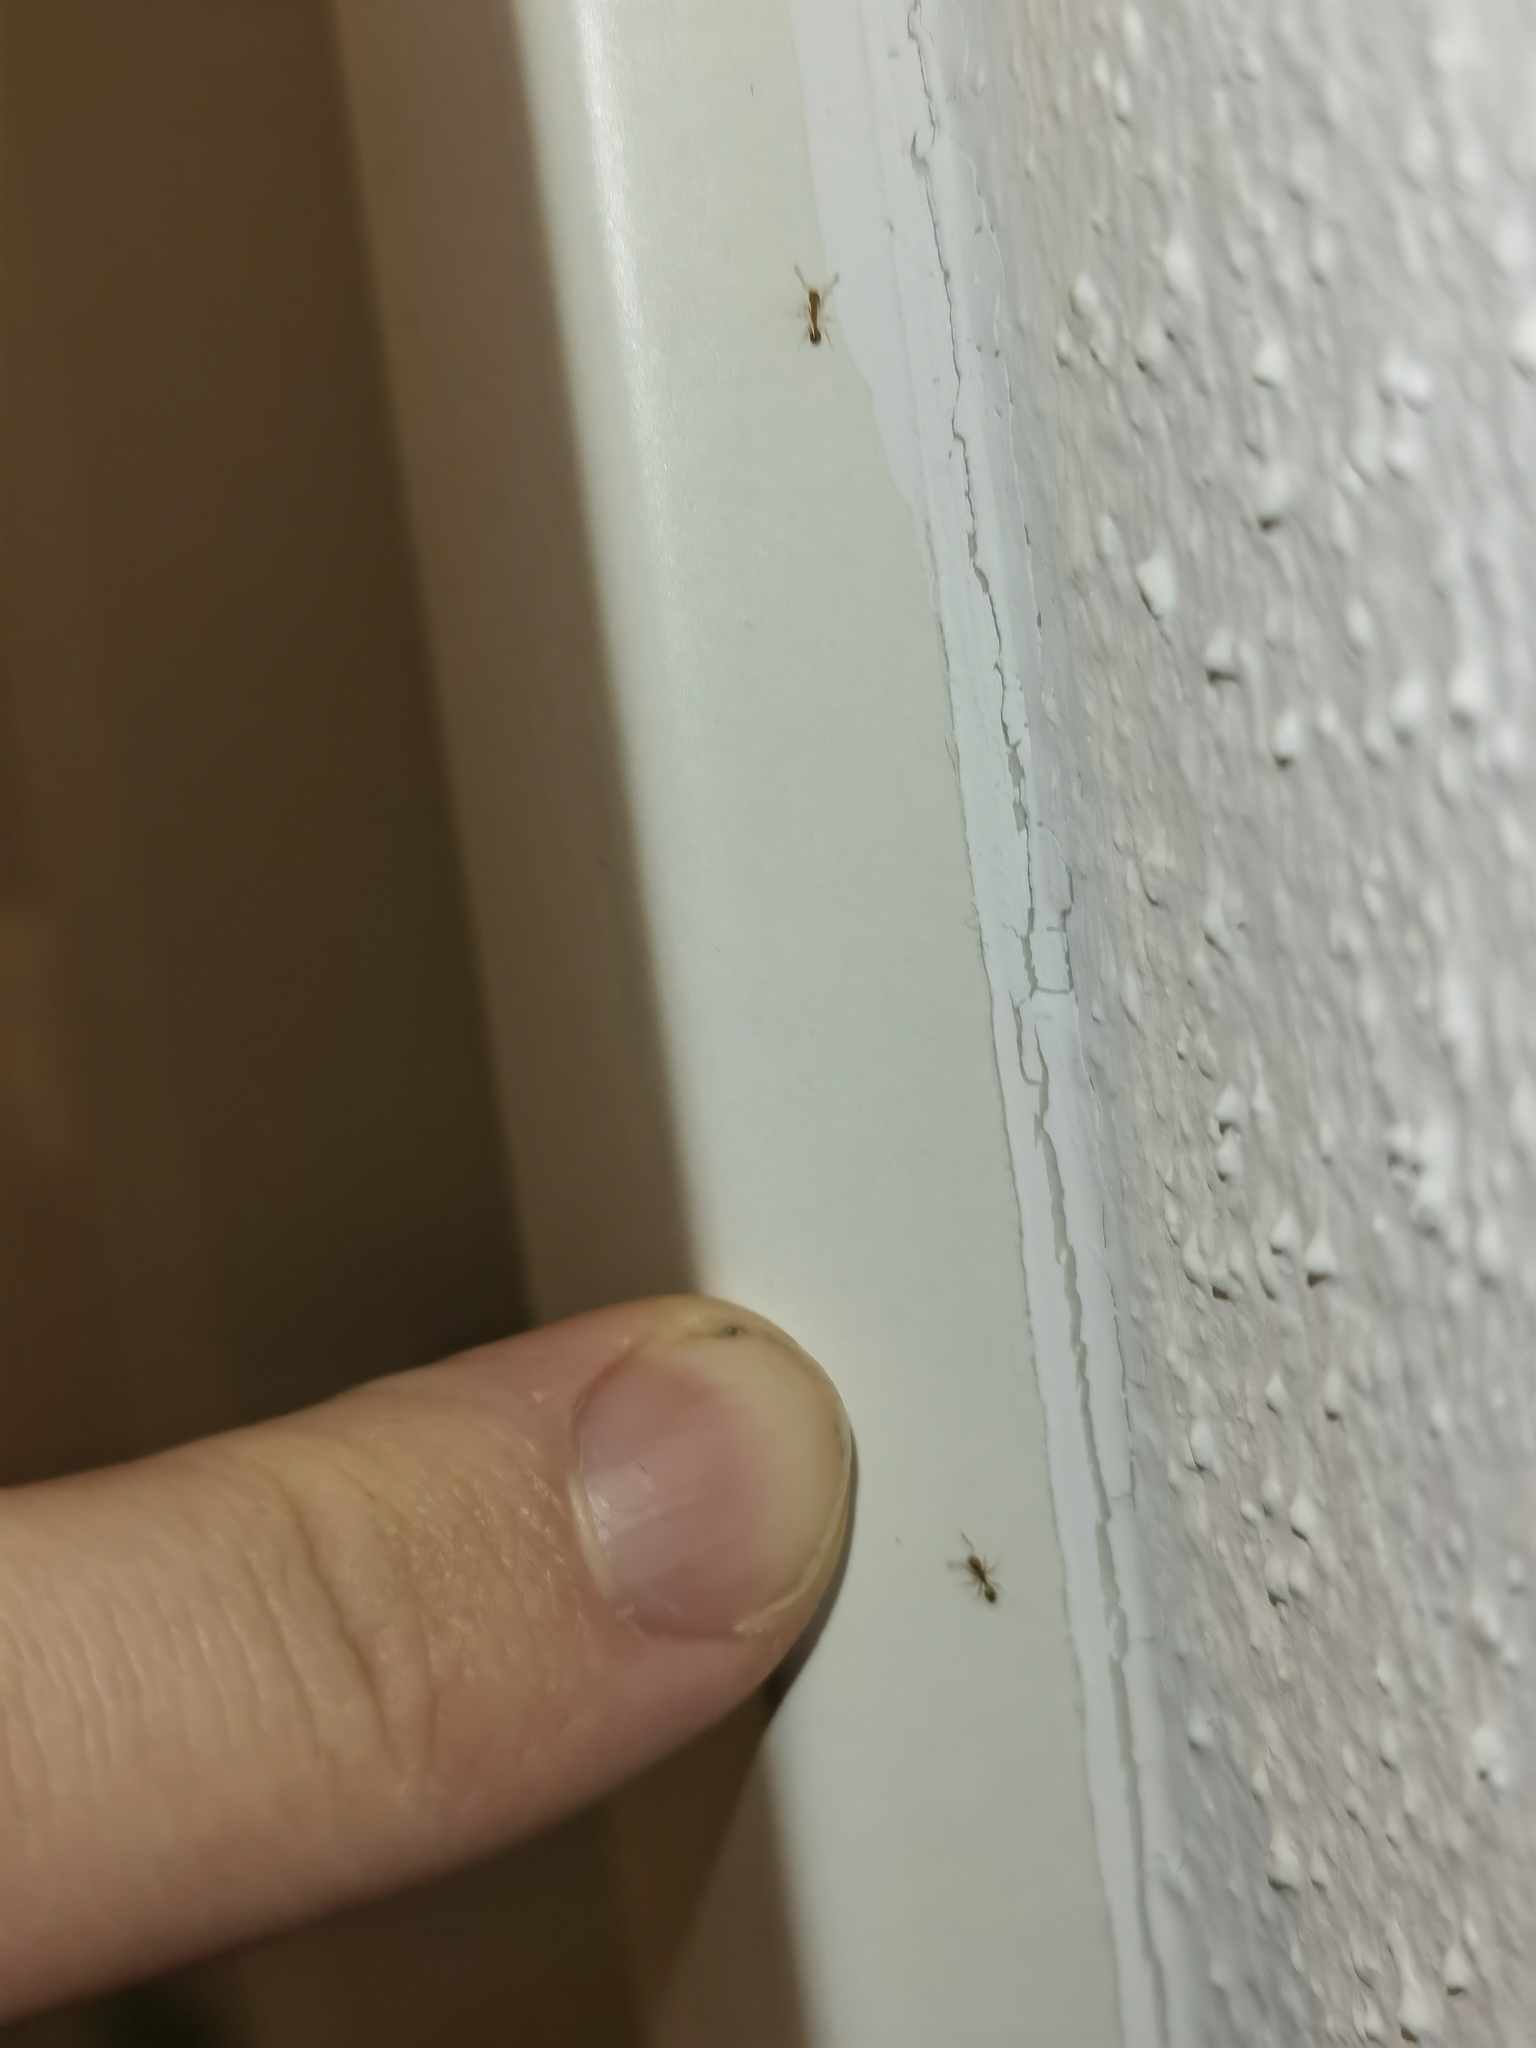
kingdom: Animalia
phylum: Arthropoda
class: Insecta
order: Hymenoptera
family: Formicidae
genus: Monomorium
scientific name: Monomorium pharaonis
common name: Pharaoh ant
